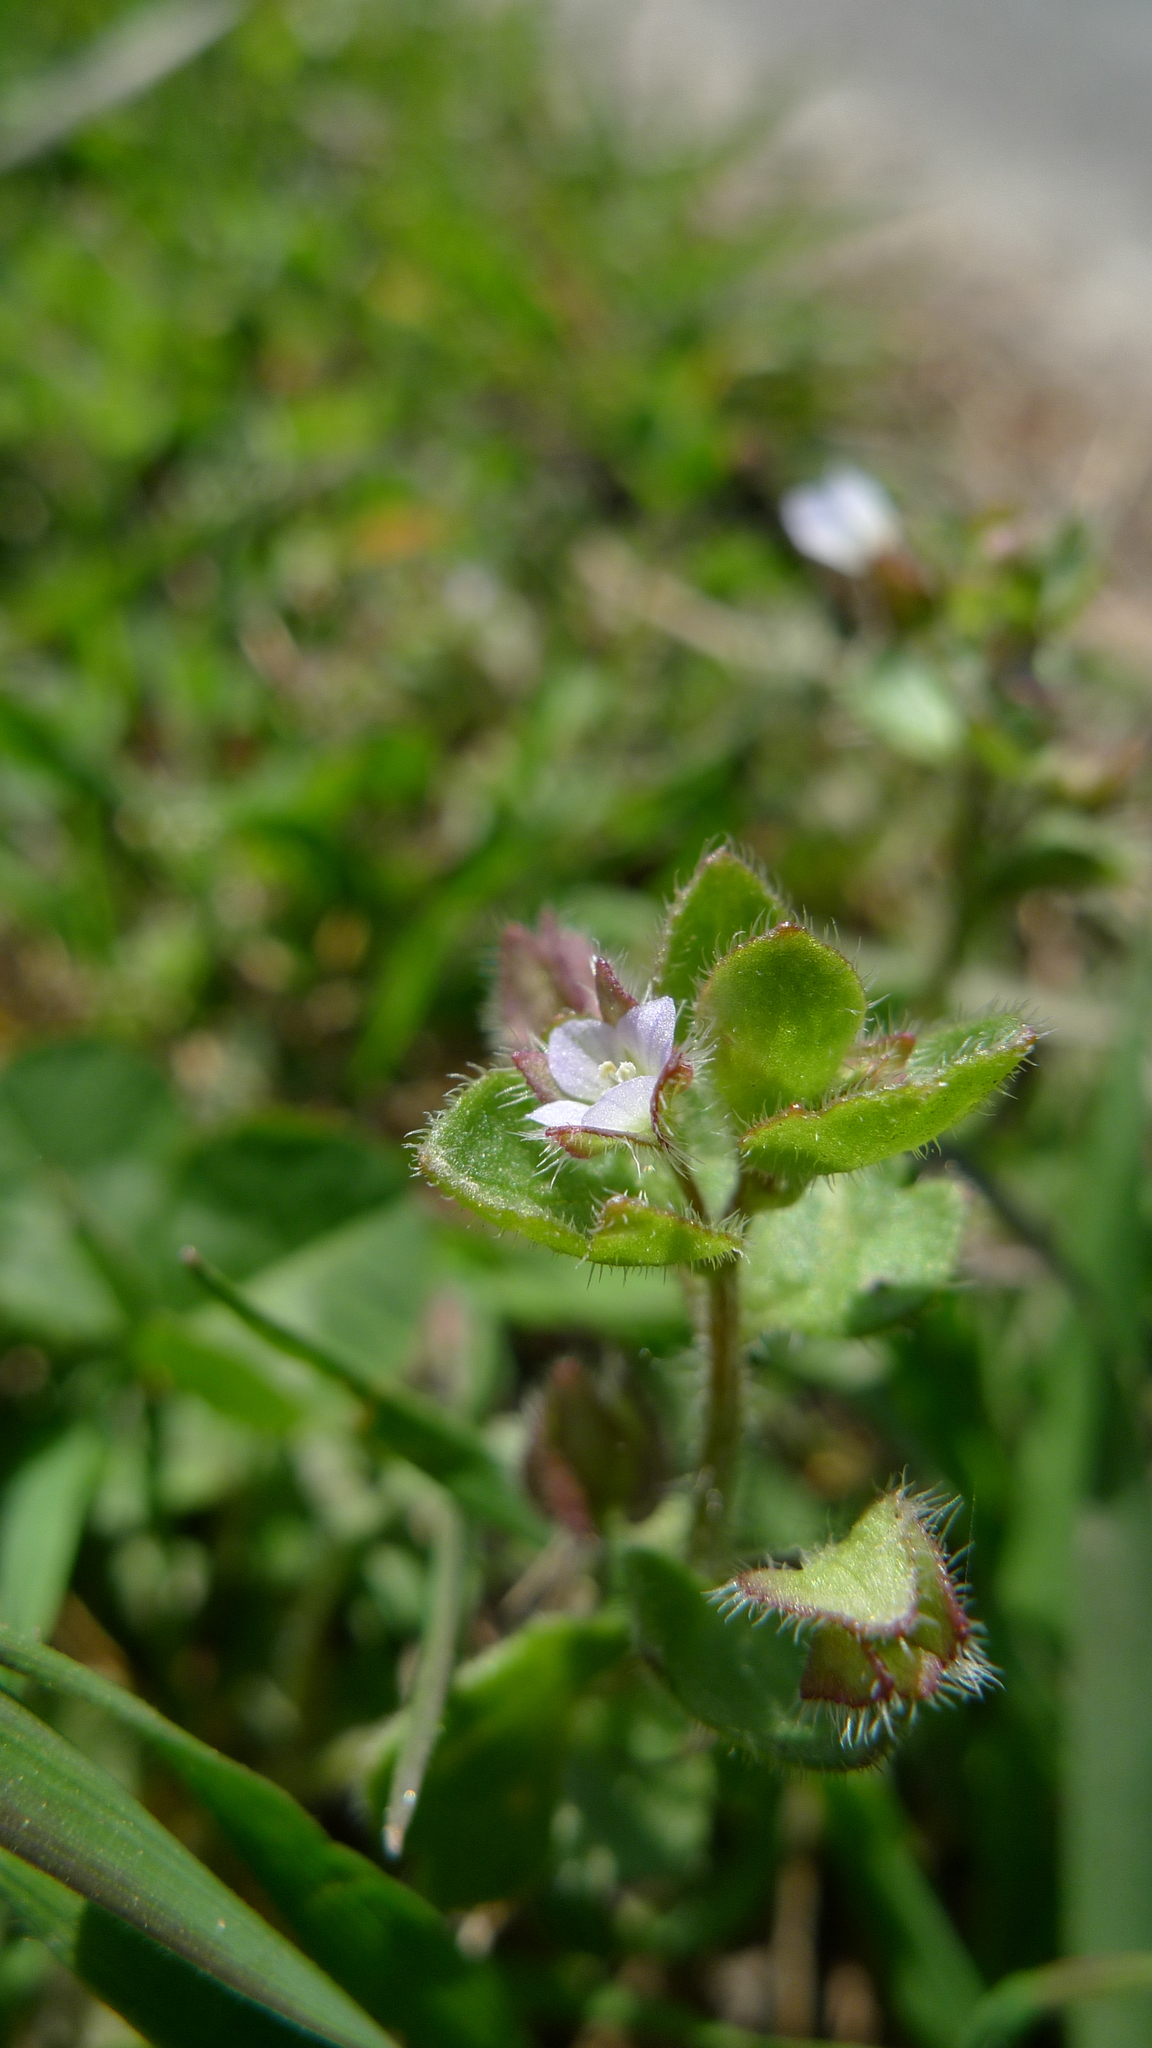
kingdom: Plantae
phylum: Tracheophyta
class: Magnoliopsida
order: Lamiales
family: Plantaginaceae
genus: Veronica
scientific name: Veronica sublobata
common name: False ivy-leaved speedwell
